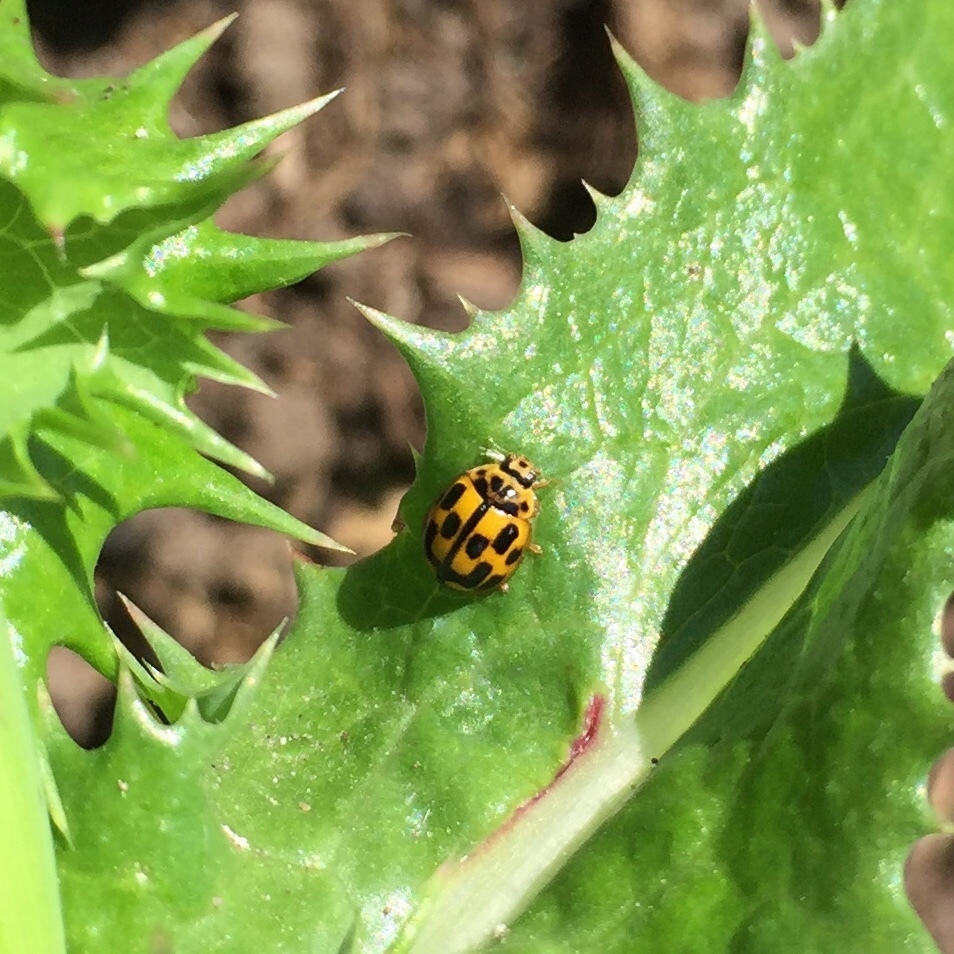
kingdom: Animalia
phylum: Arthropoda
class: Insecta
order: Coleoptera
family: Coccinellidae
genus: Propylaea
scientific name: Propylaea quatuordecimpunctata
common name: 14-spotted ladybird beetle
